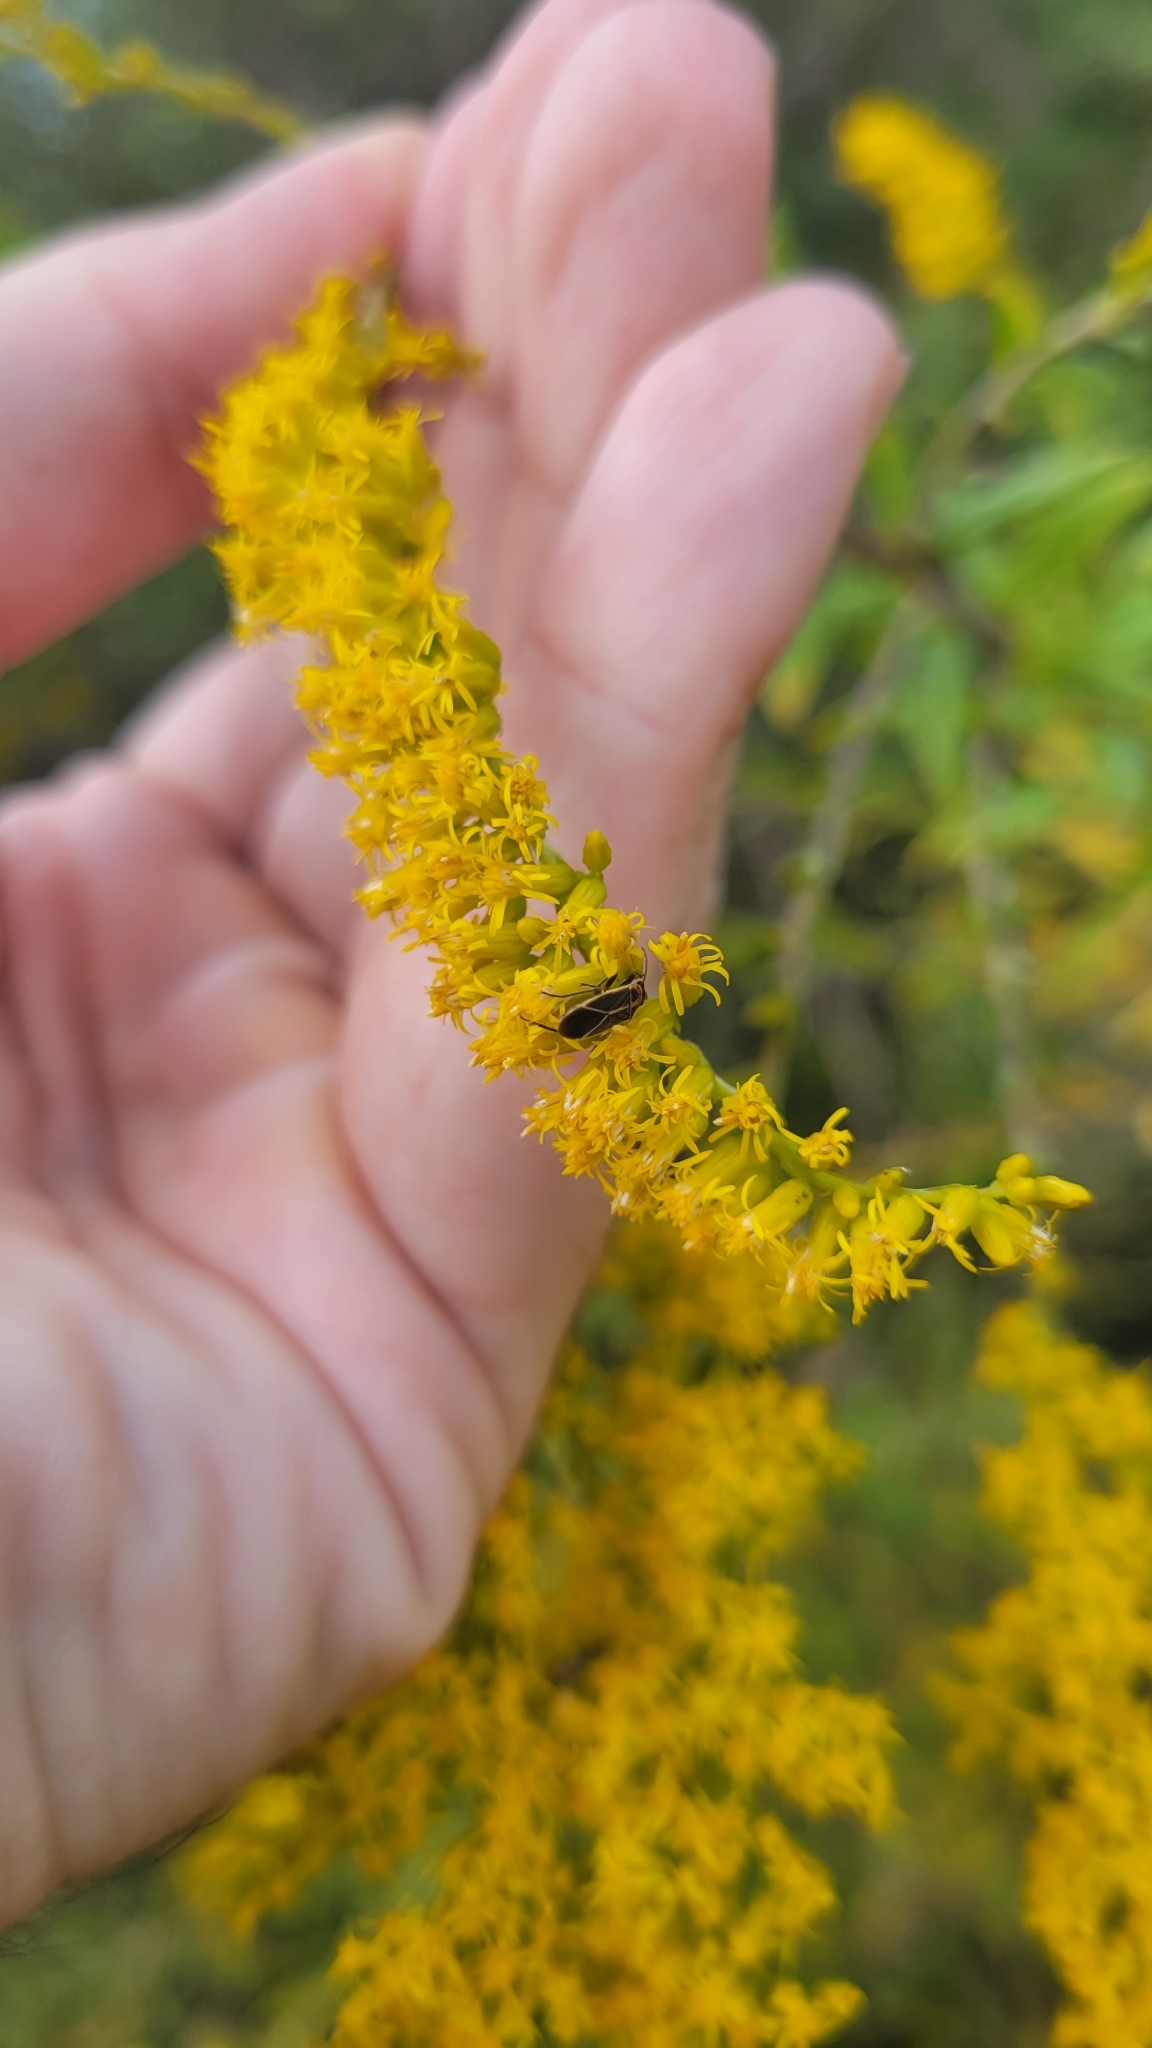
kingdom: Animalia
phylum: Arthropoda
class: Insecta
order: Hemiptera
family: Lygaeidae
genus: Ochrimnus
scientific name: Ochrimnus mimulus
